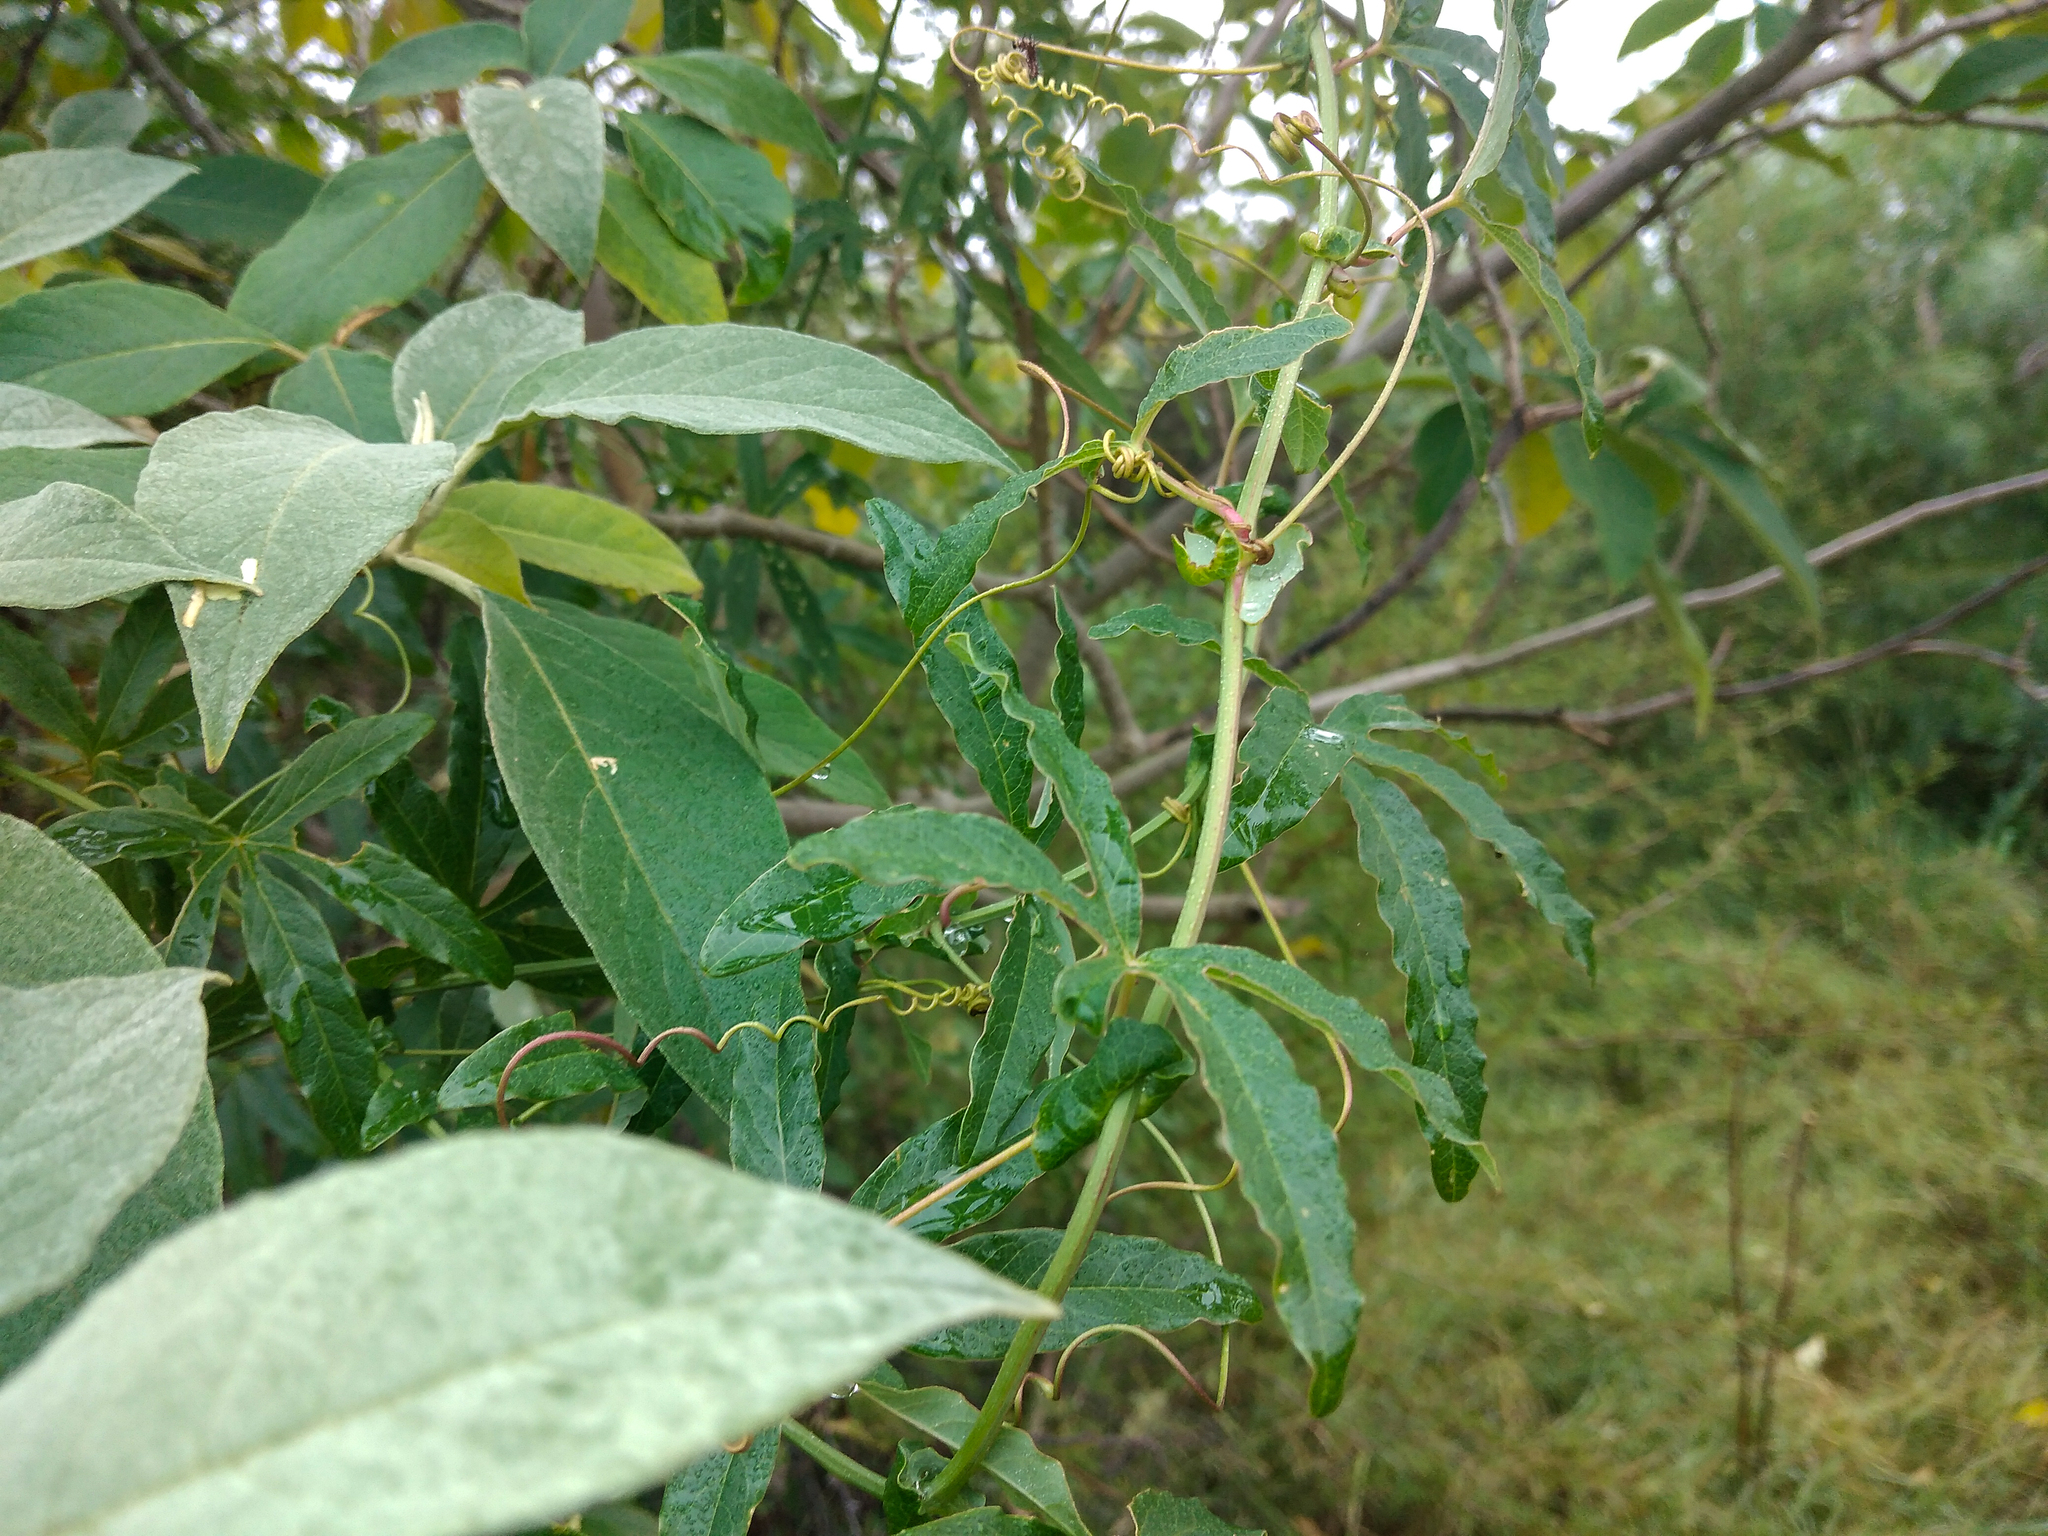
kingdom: Plantae
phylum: Tracheophyta
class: Magnoliopsida
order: Malpighiales
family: Passifloraceae
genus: Passiflora
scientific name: Passiflora caerulea
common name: Blue passionflower
